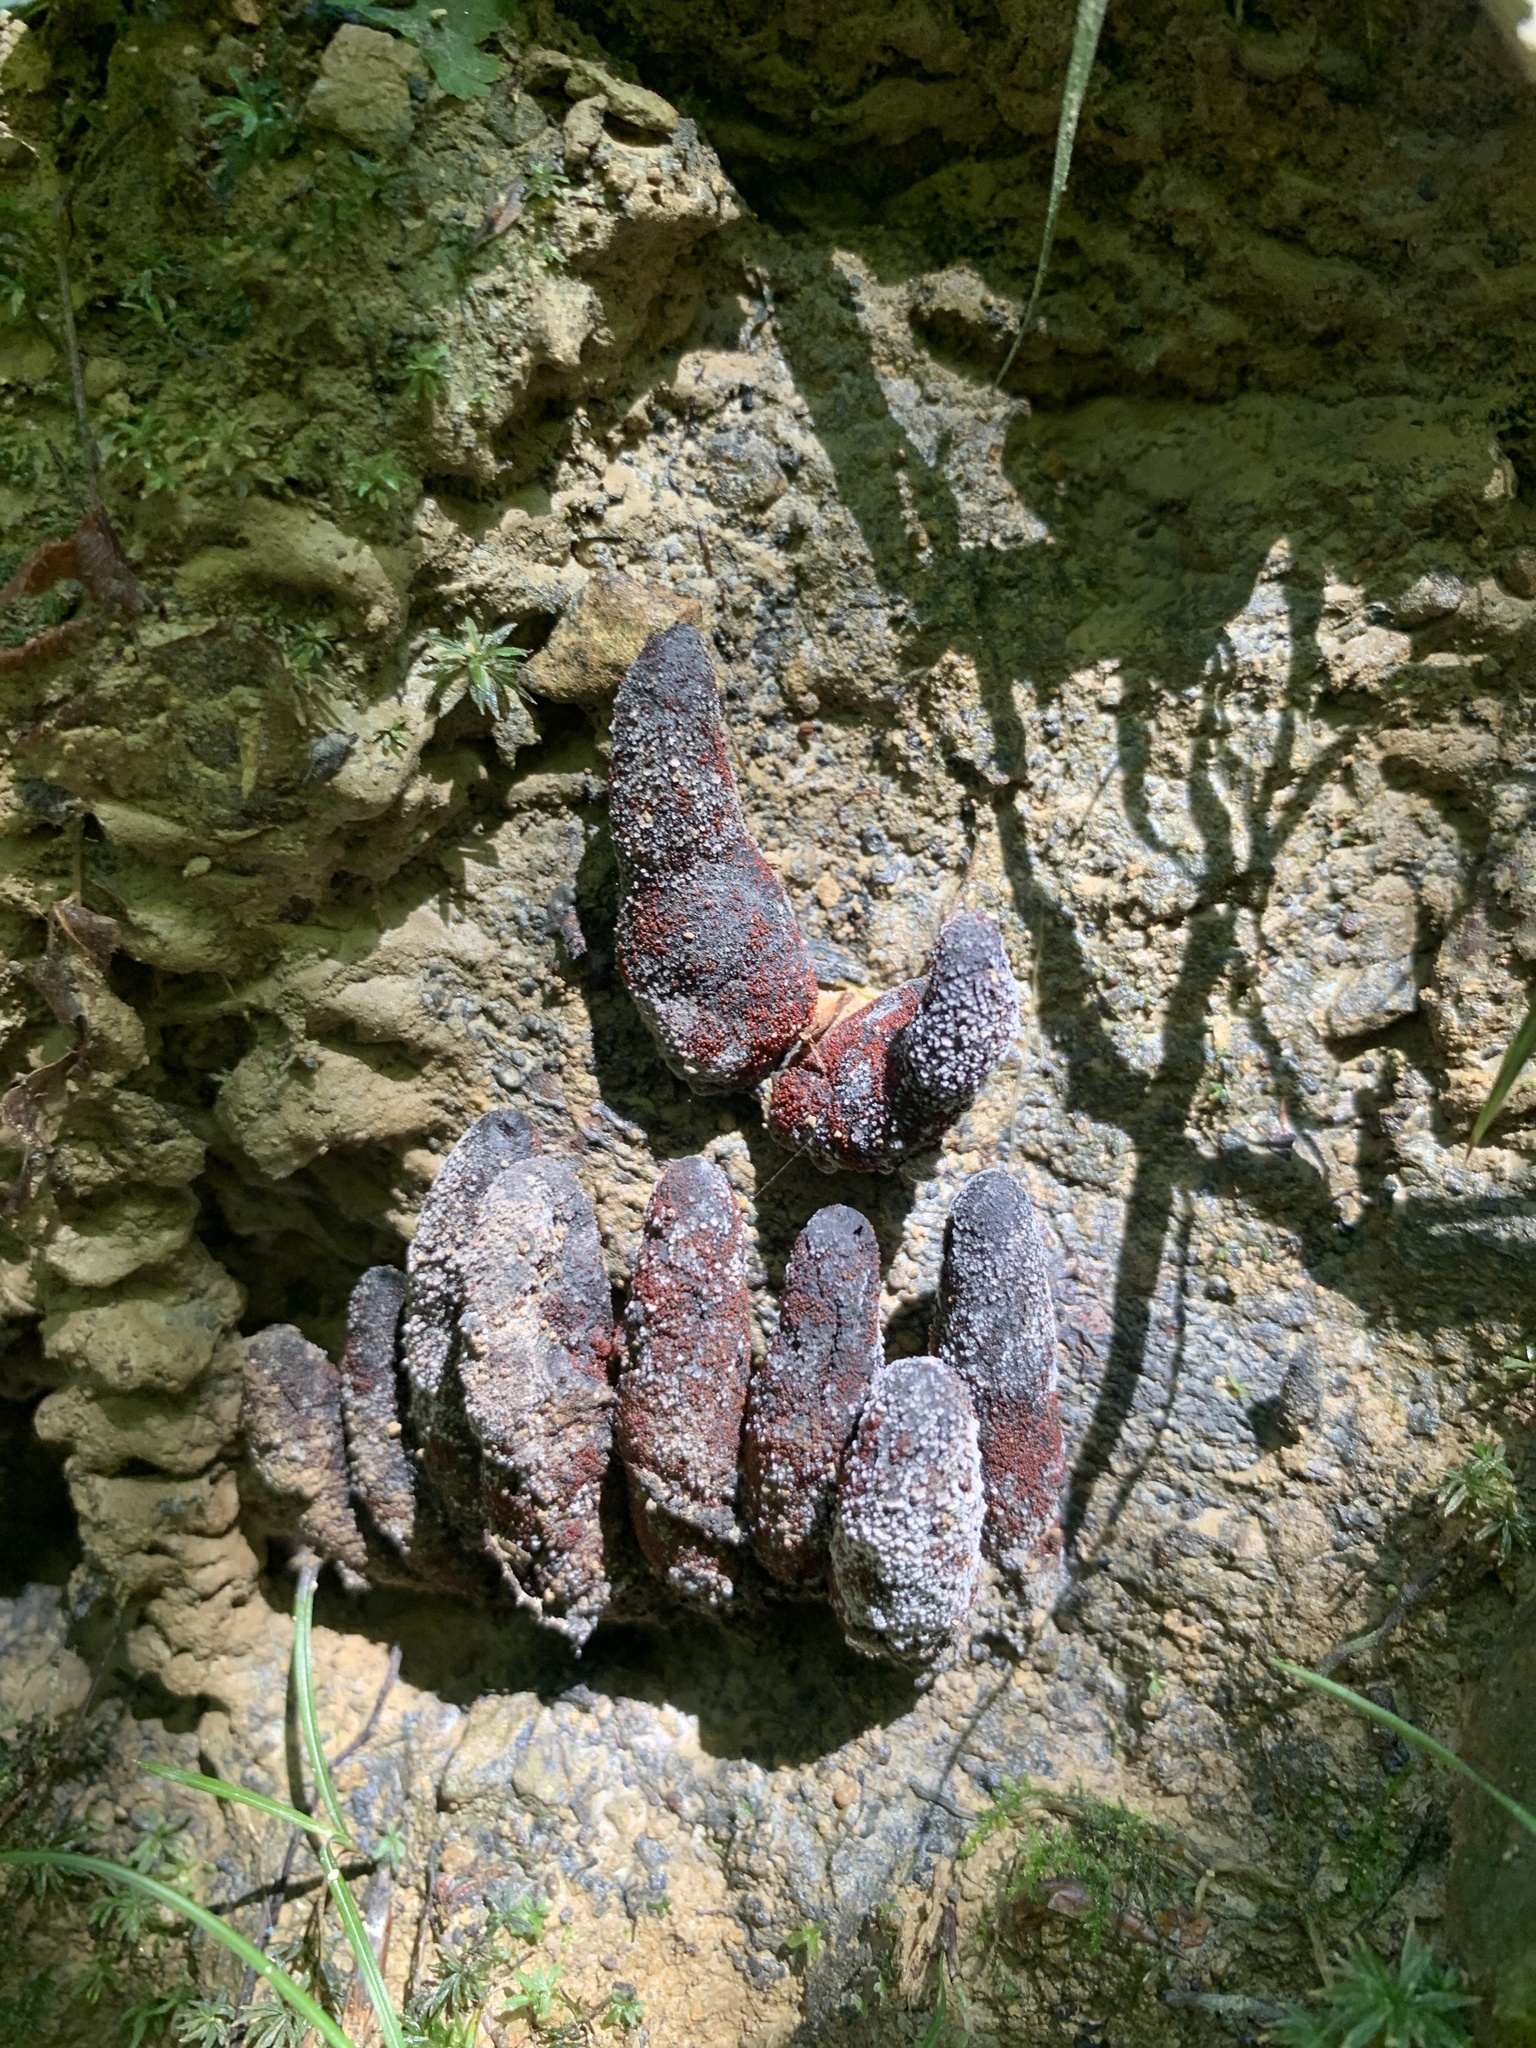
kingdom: Fungi
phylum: Ascomycota
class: Sordariomycetes
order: Xylariales
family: Xylariaceae
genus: Xylaria
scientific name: Xylaria polymorpha
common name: Dead man's fingers
